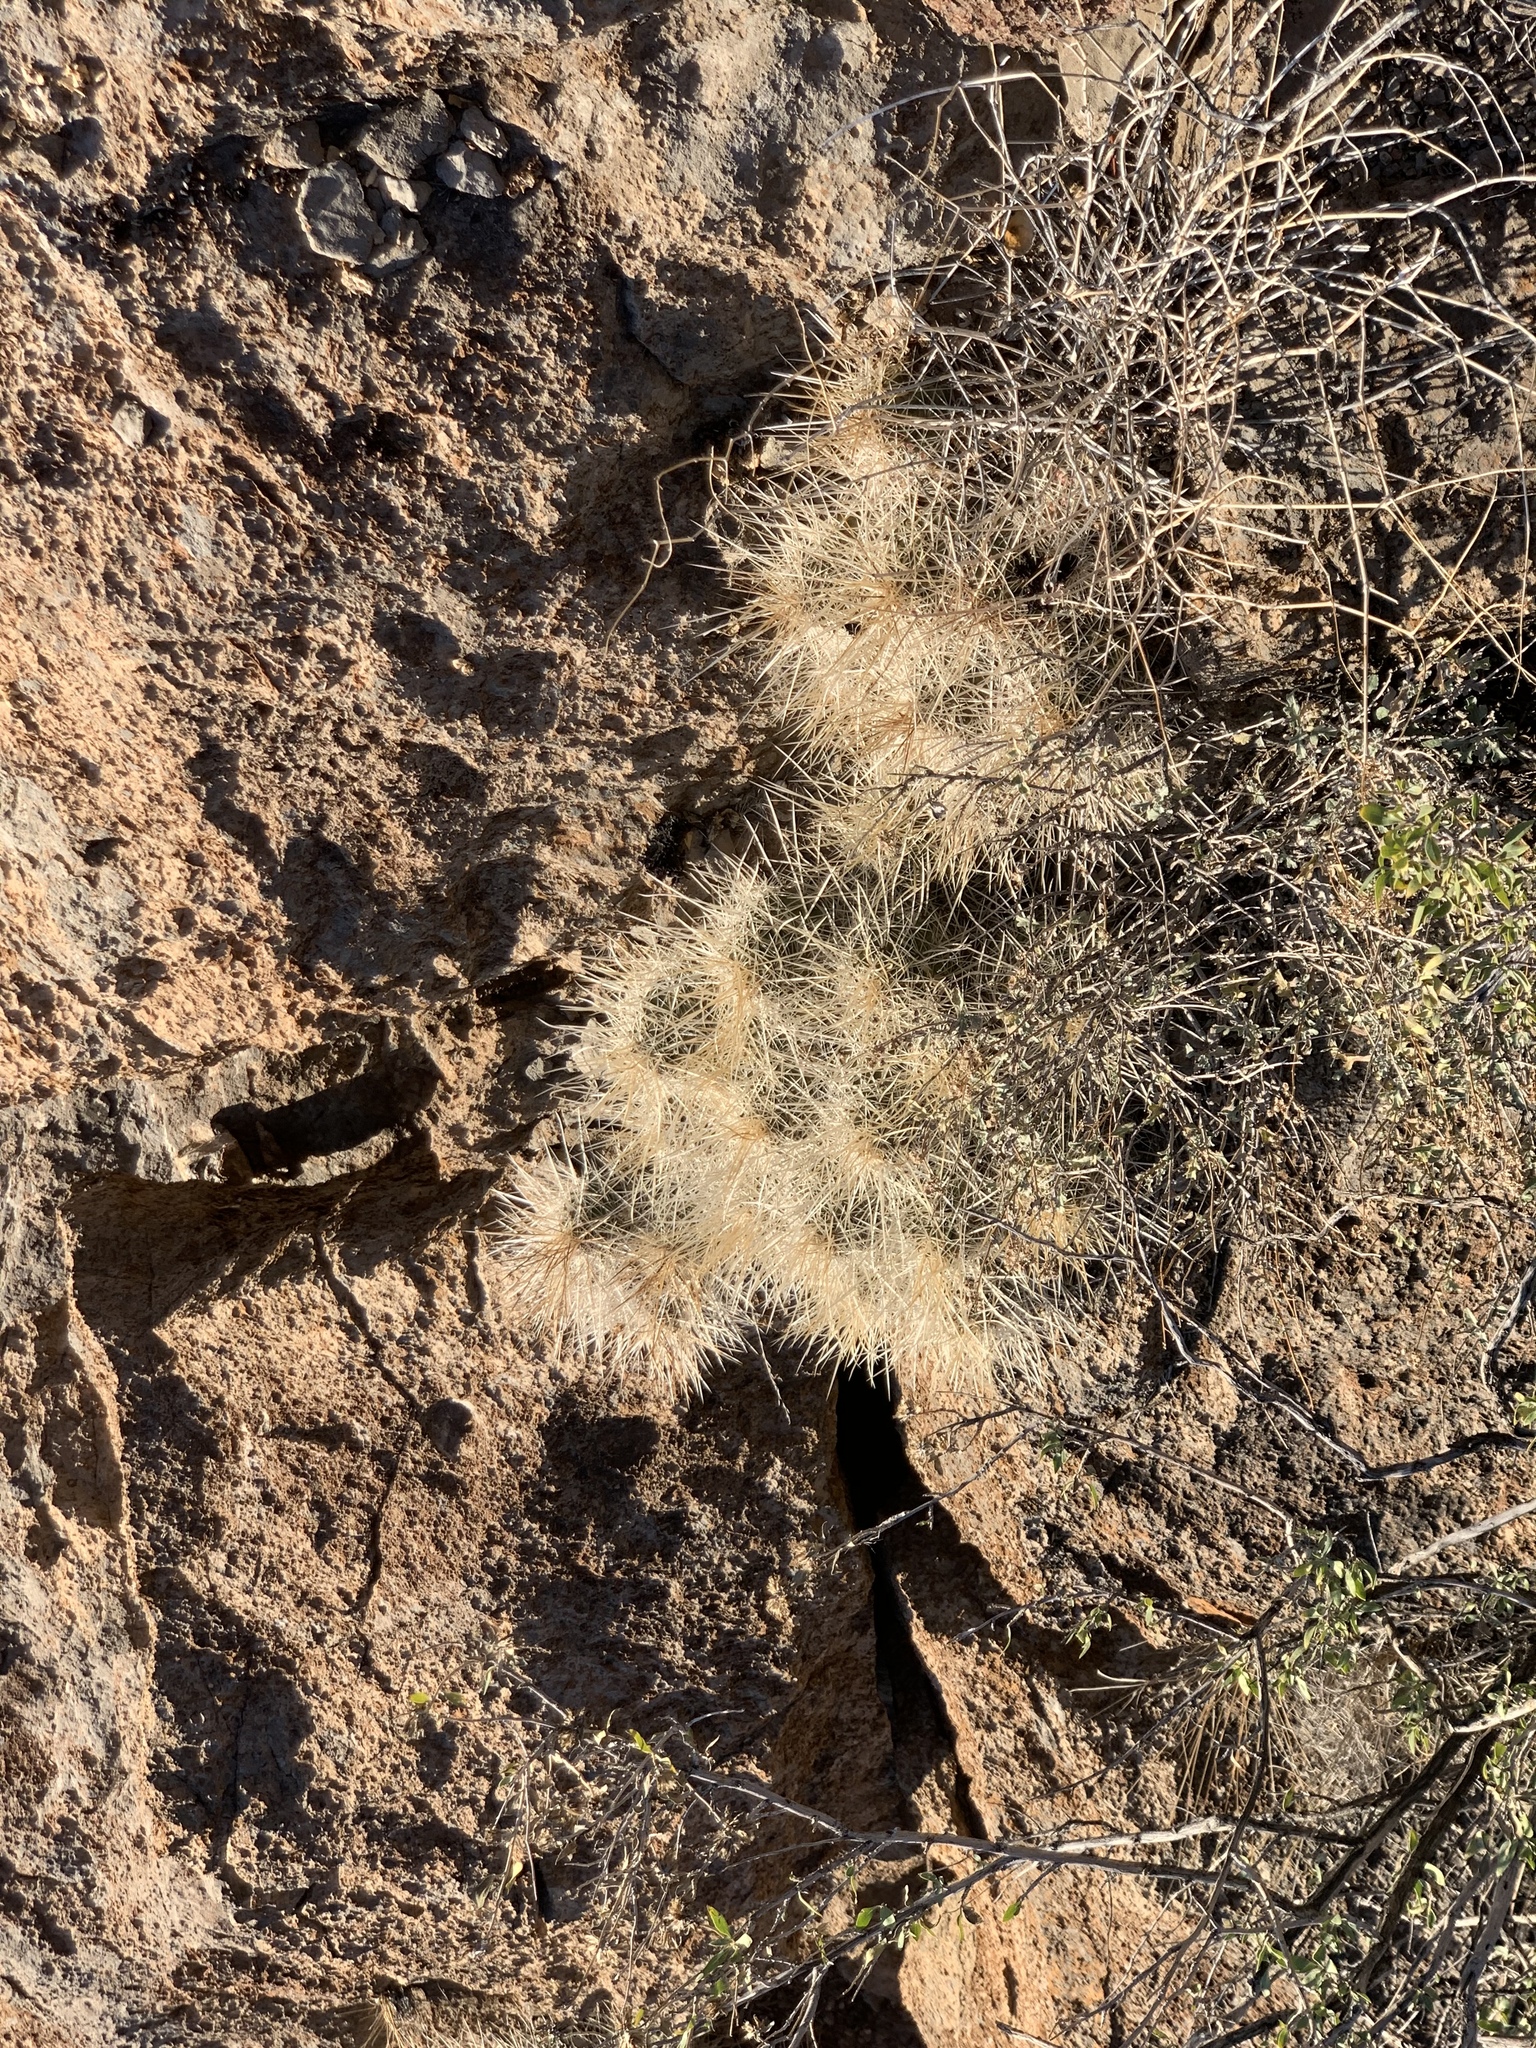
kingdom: Plantae
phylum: Tracheophyta
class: Magnoliopsida
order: Caryophyllales
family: Cactaceae
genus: Echinocereus
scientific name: Echinocereus stramineus
